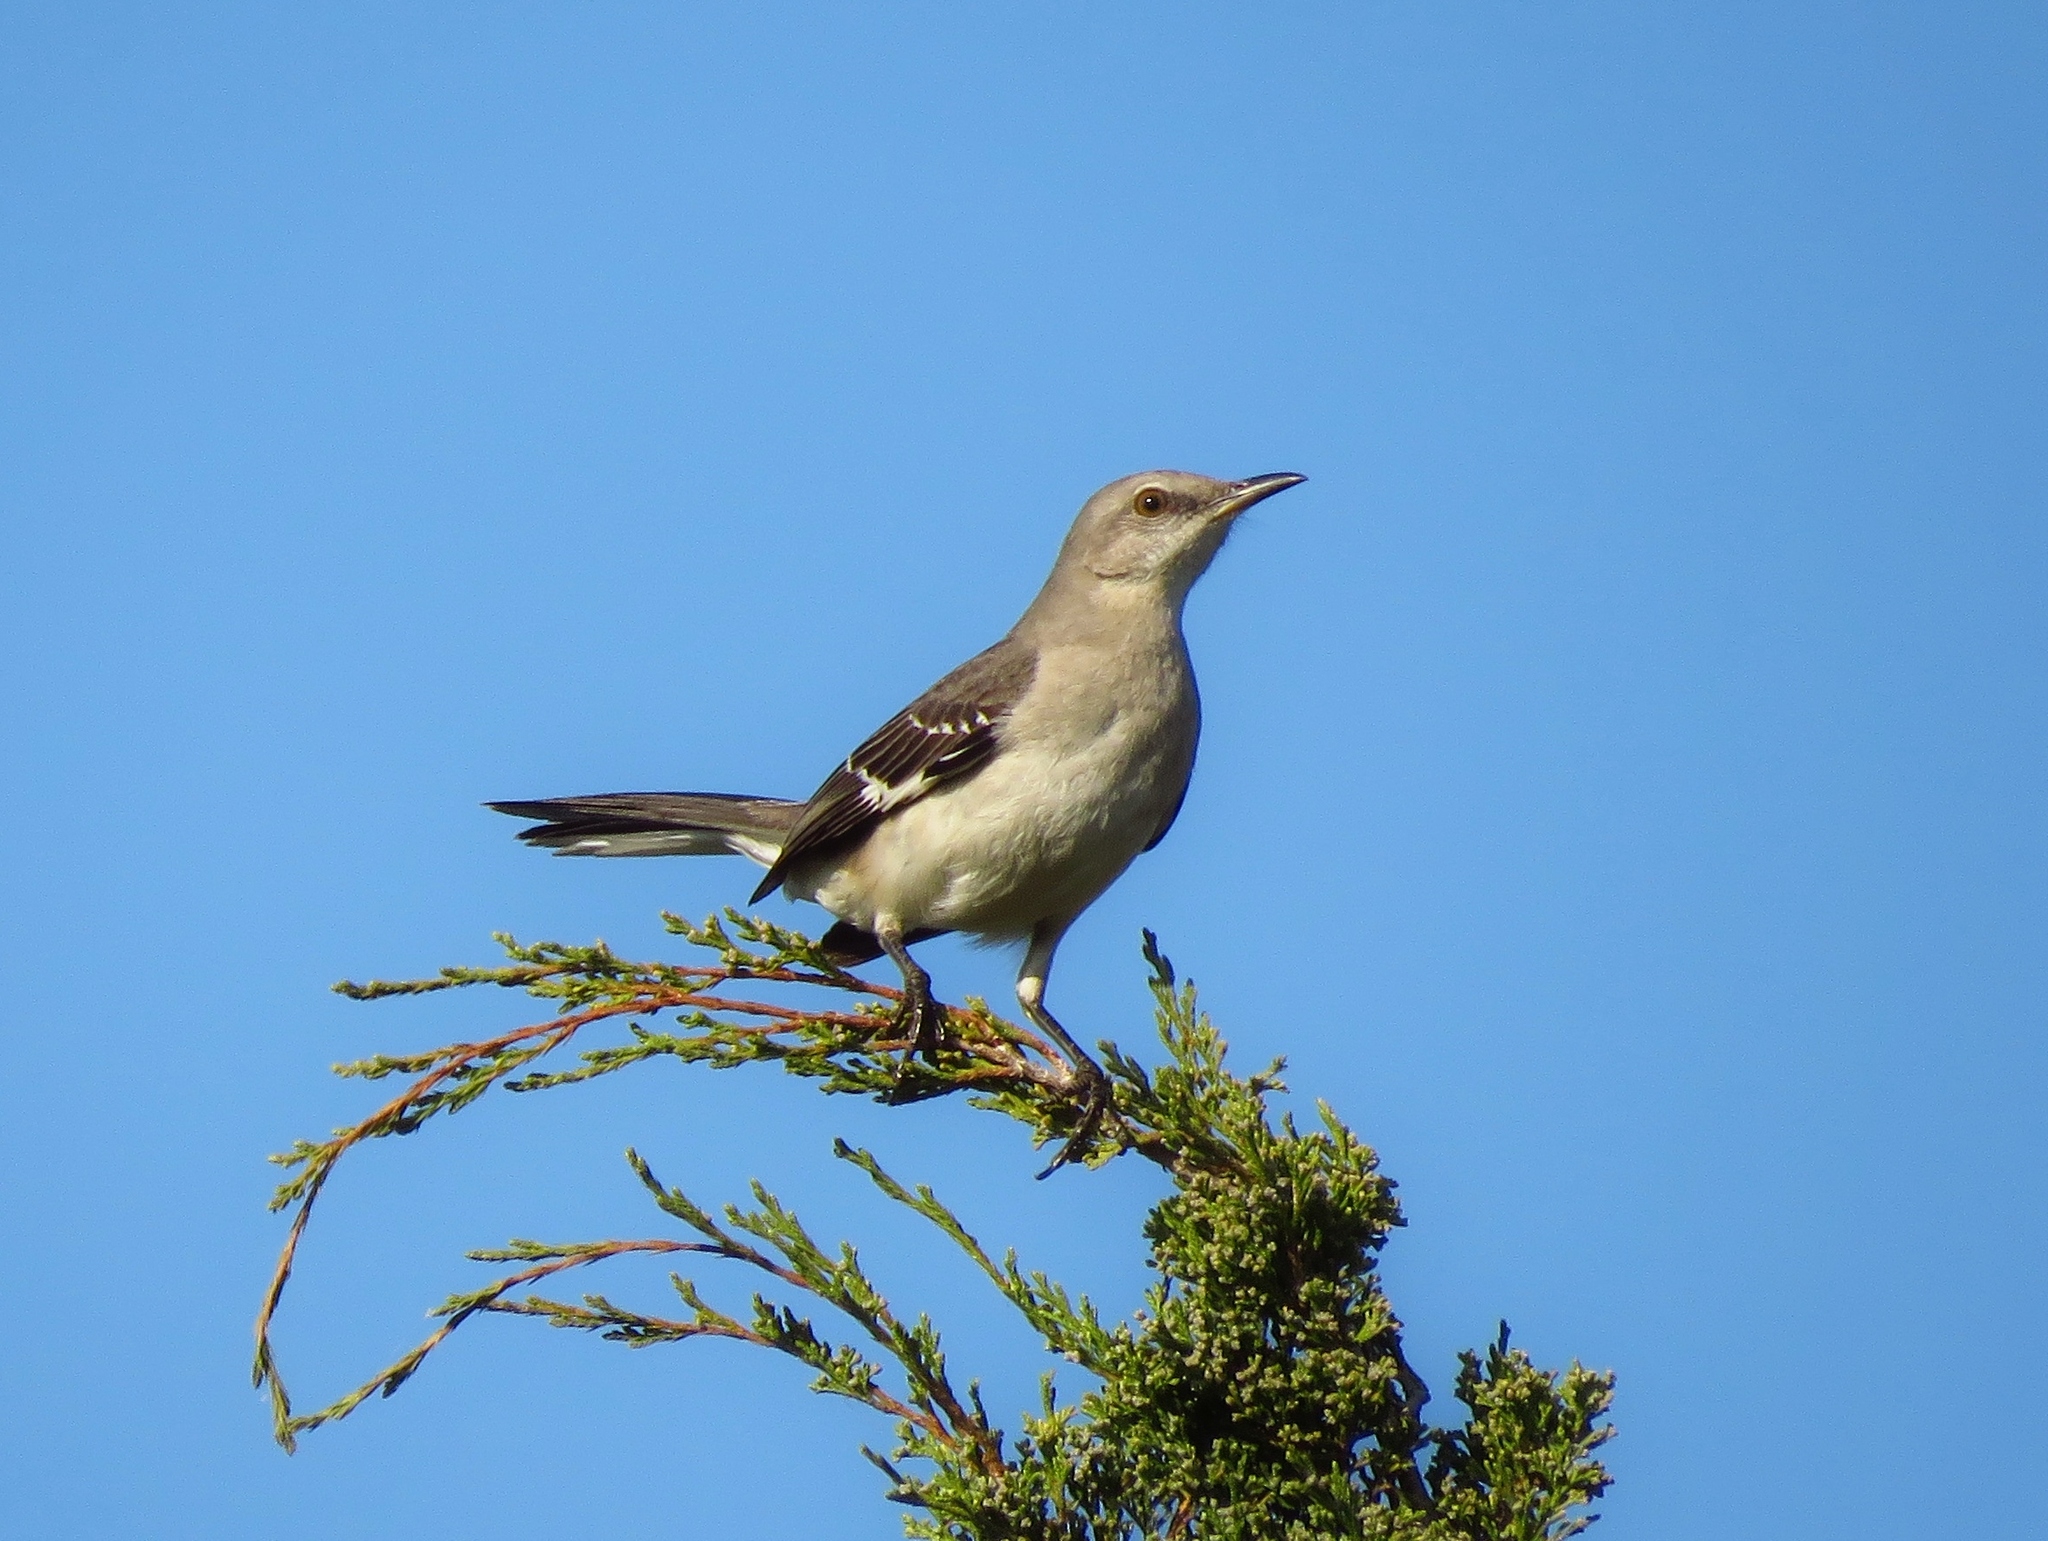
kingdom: Animalia
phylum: Chordata
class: Aves
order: Passeriformes
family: Mimidae
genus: Mimus
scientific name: Mimus polyglottos
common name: Northern mockingbird
